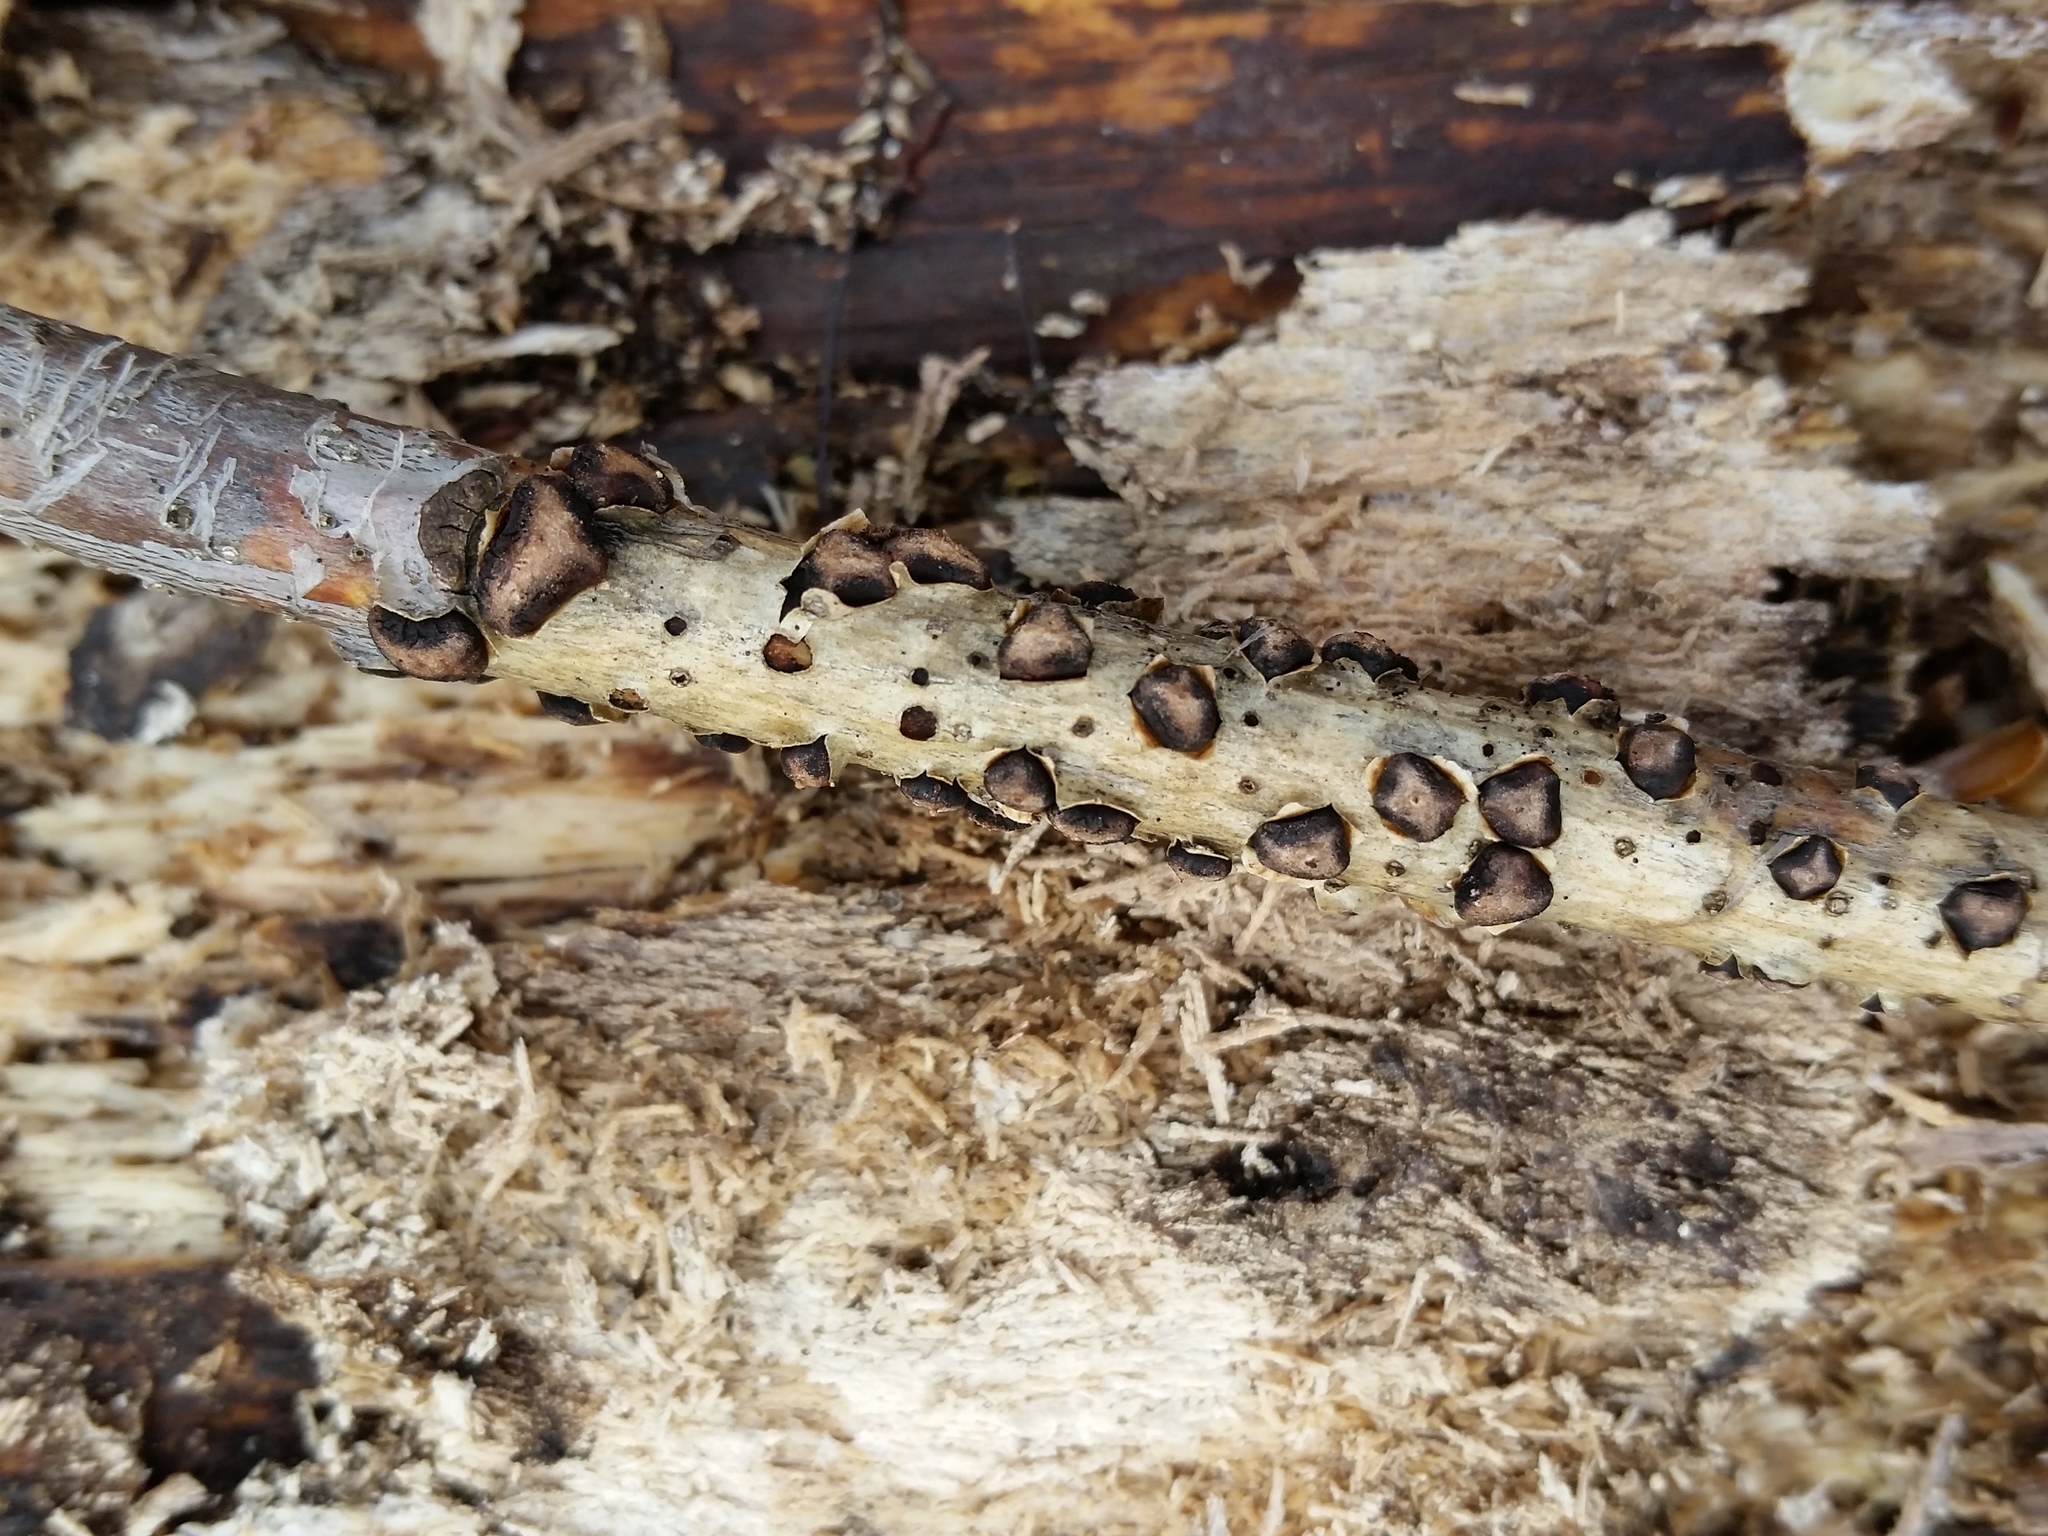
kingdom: Fungi
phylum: Ascomycota
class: Leotiomycetes
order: Rhytismatales
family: Rhytismataceae
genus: Coccomyces
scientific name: Coccomyces triangularis
